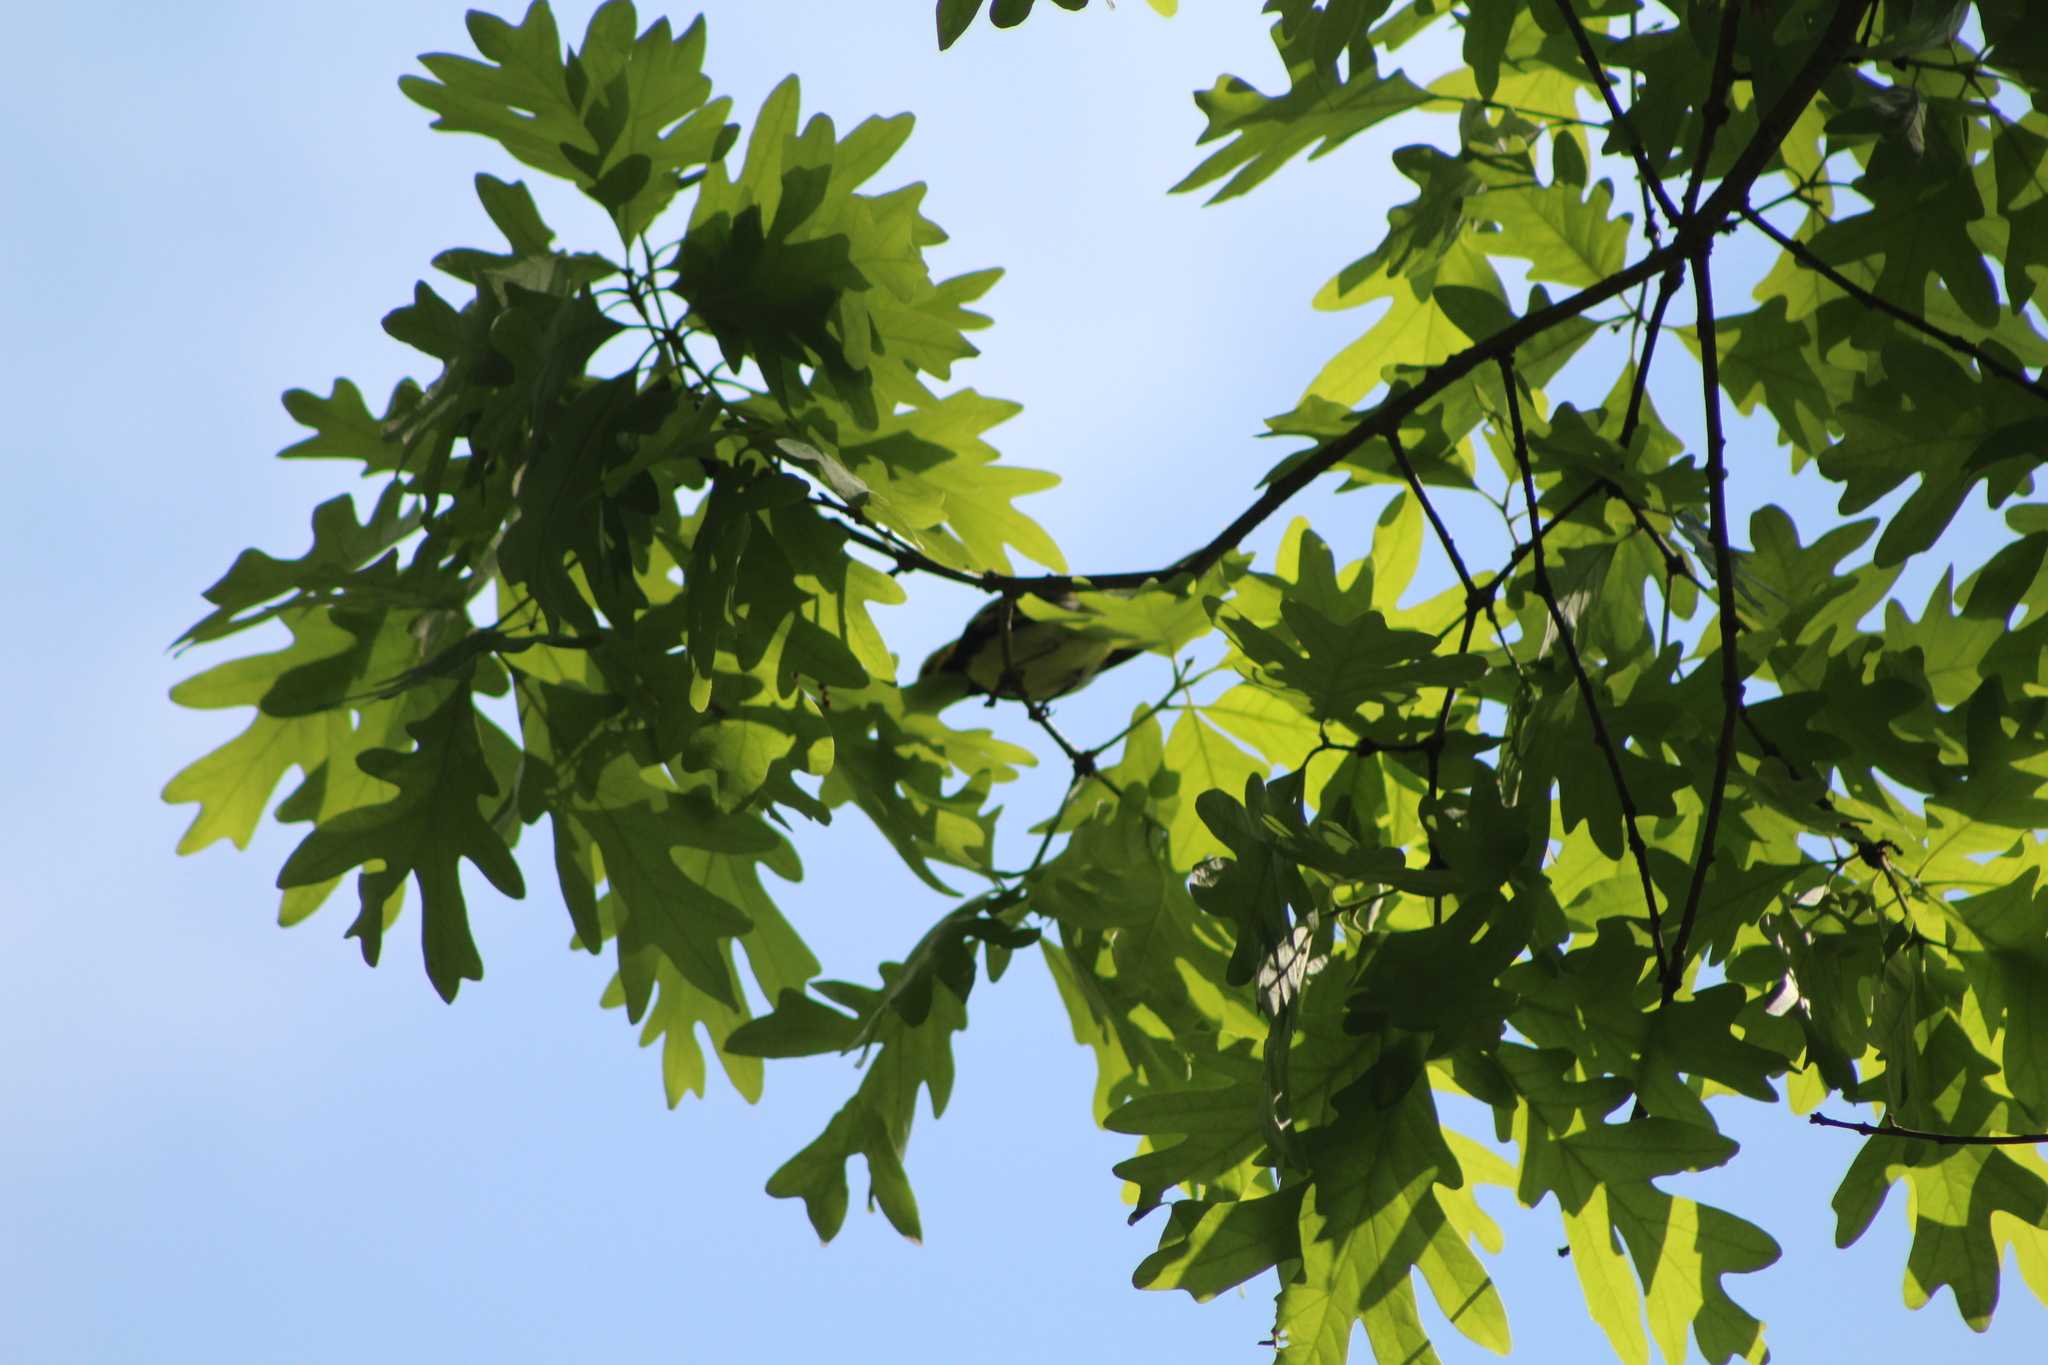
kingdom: Animalia
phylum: Chordata
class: Aves
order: Passeriformes
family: Parulidae
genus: Setophaga
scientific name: Setophaga virens
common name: Black-throated green warbler
